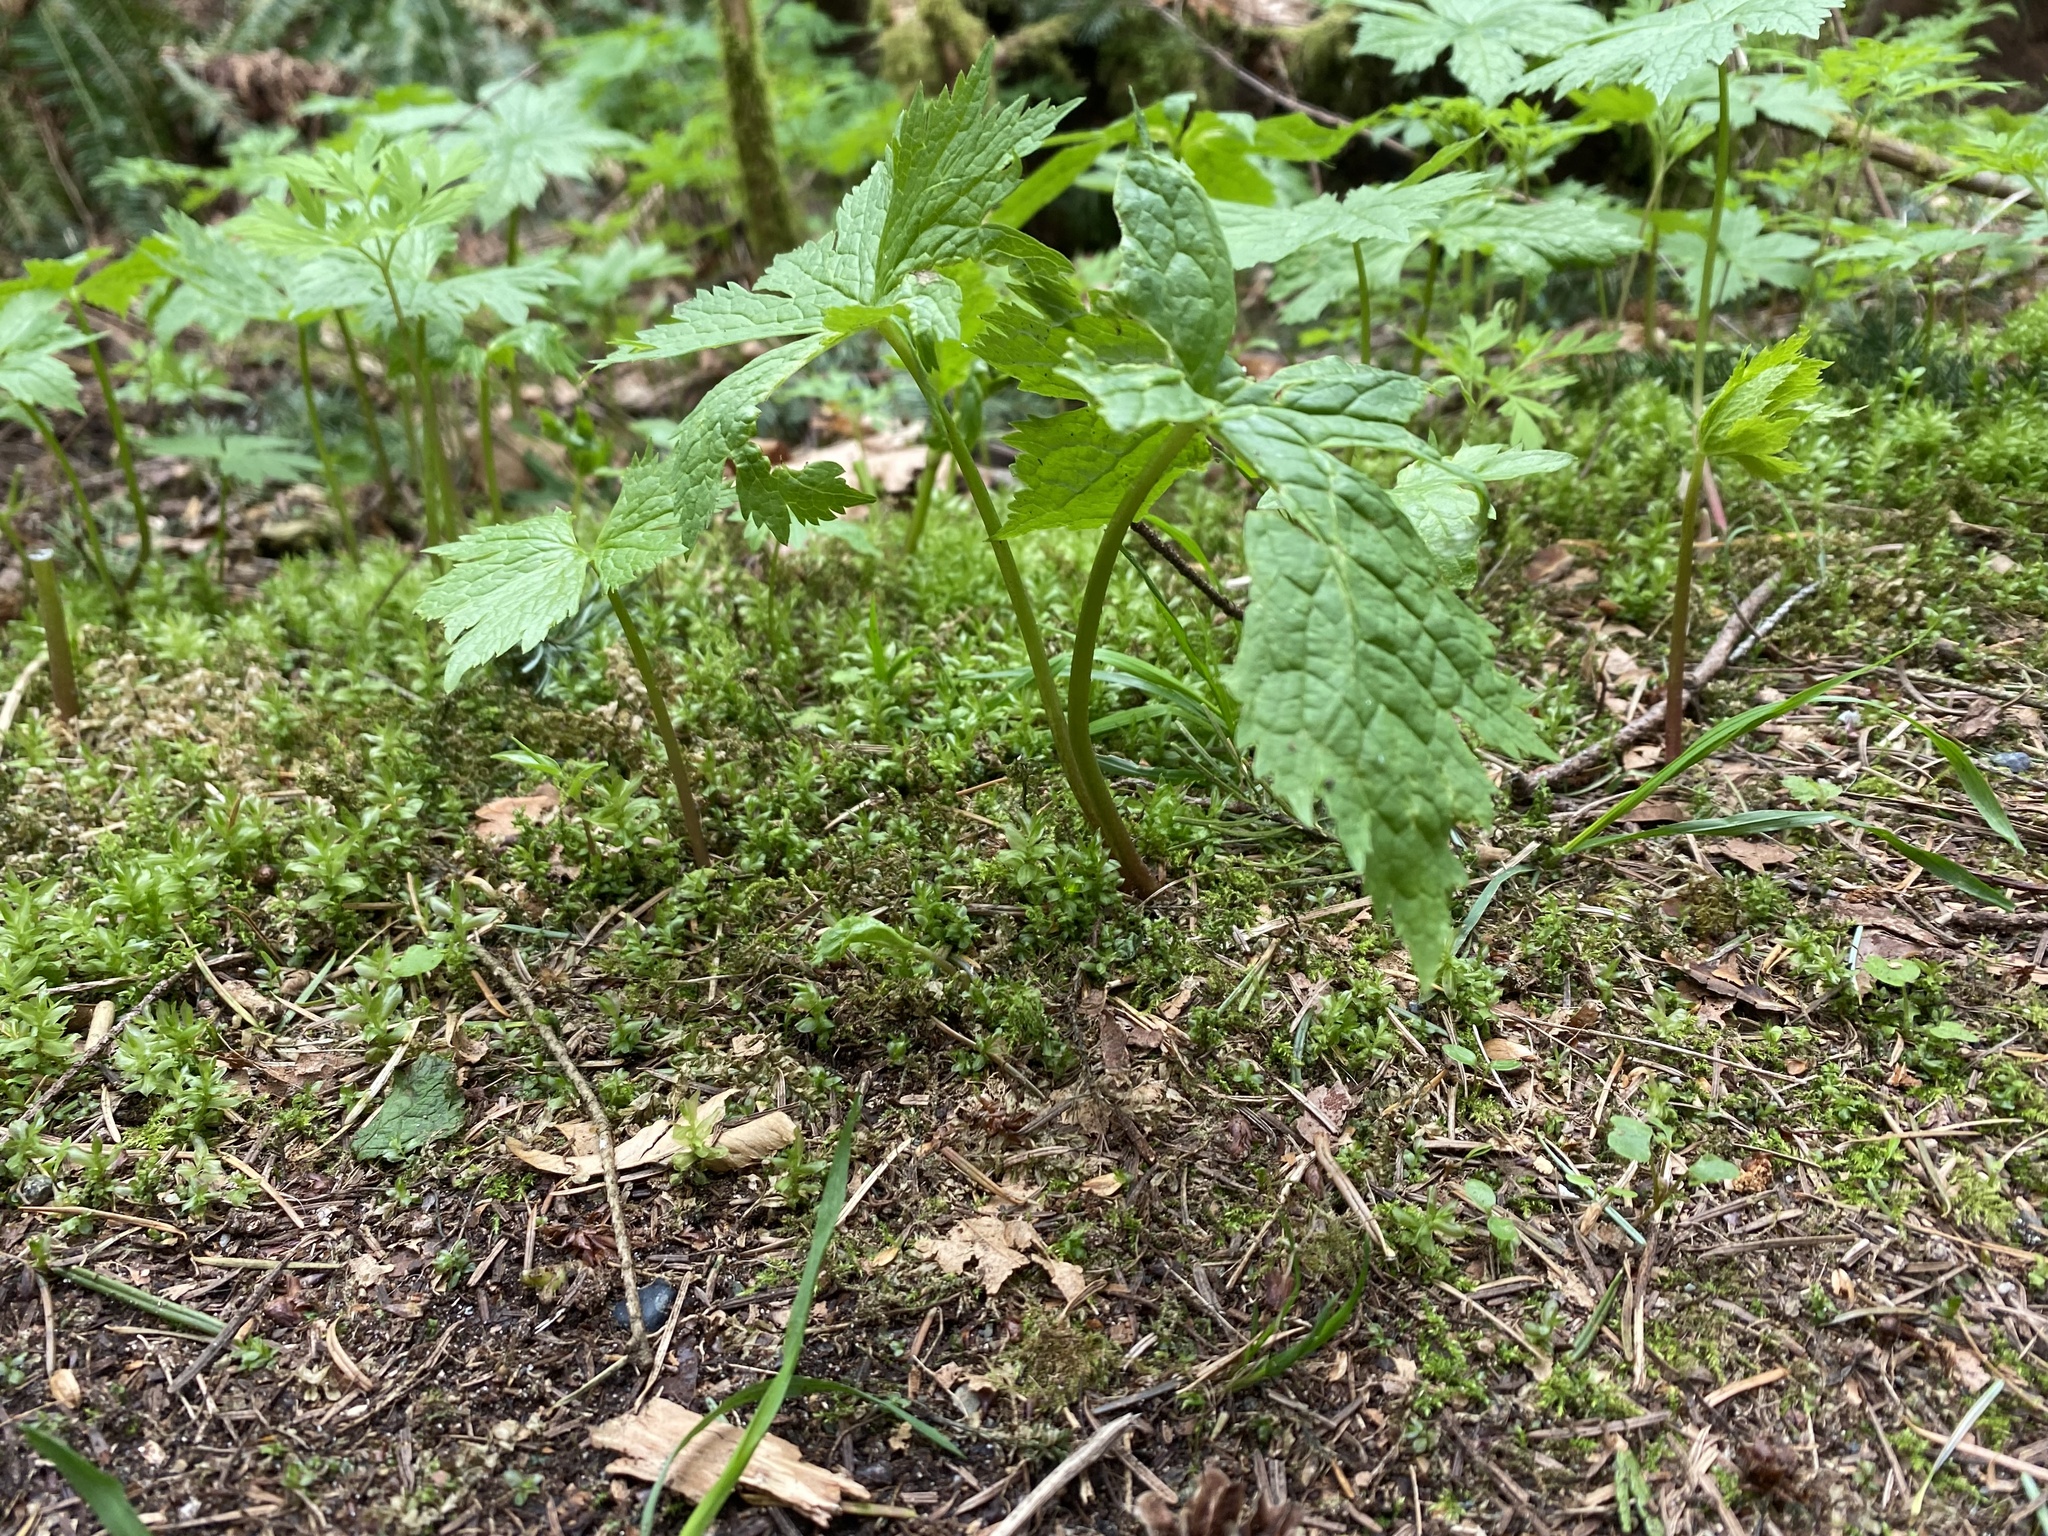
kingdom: Plantae
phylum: Tracheophyta
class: Magnoliopsida
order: Ranunculales
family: Ranunculaceae
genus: Trautvetteria
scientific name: Trautvetteria carolinensis
